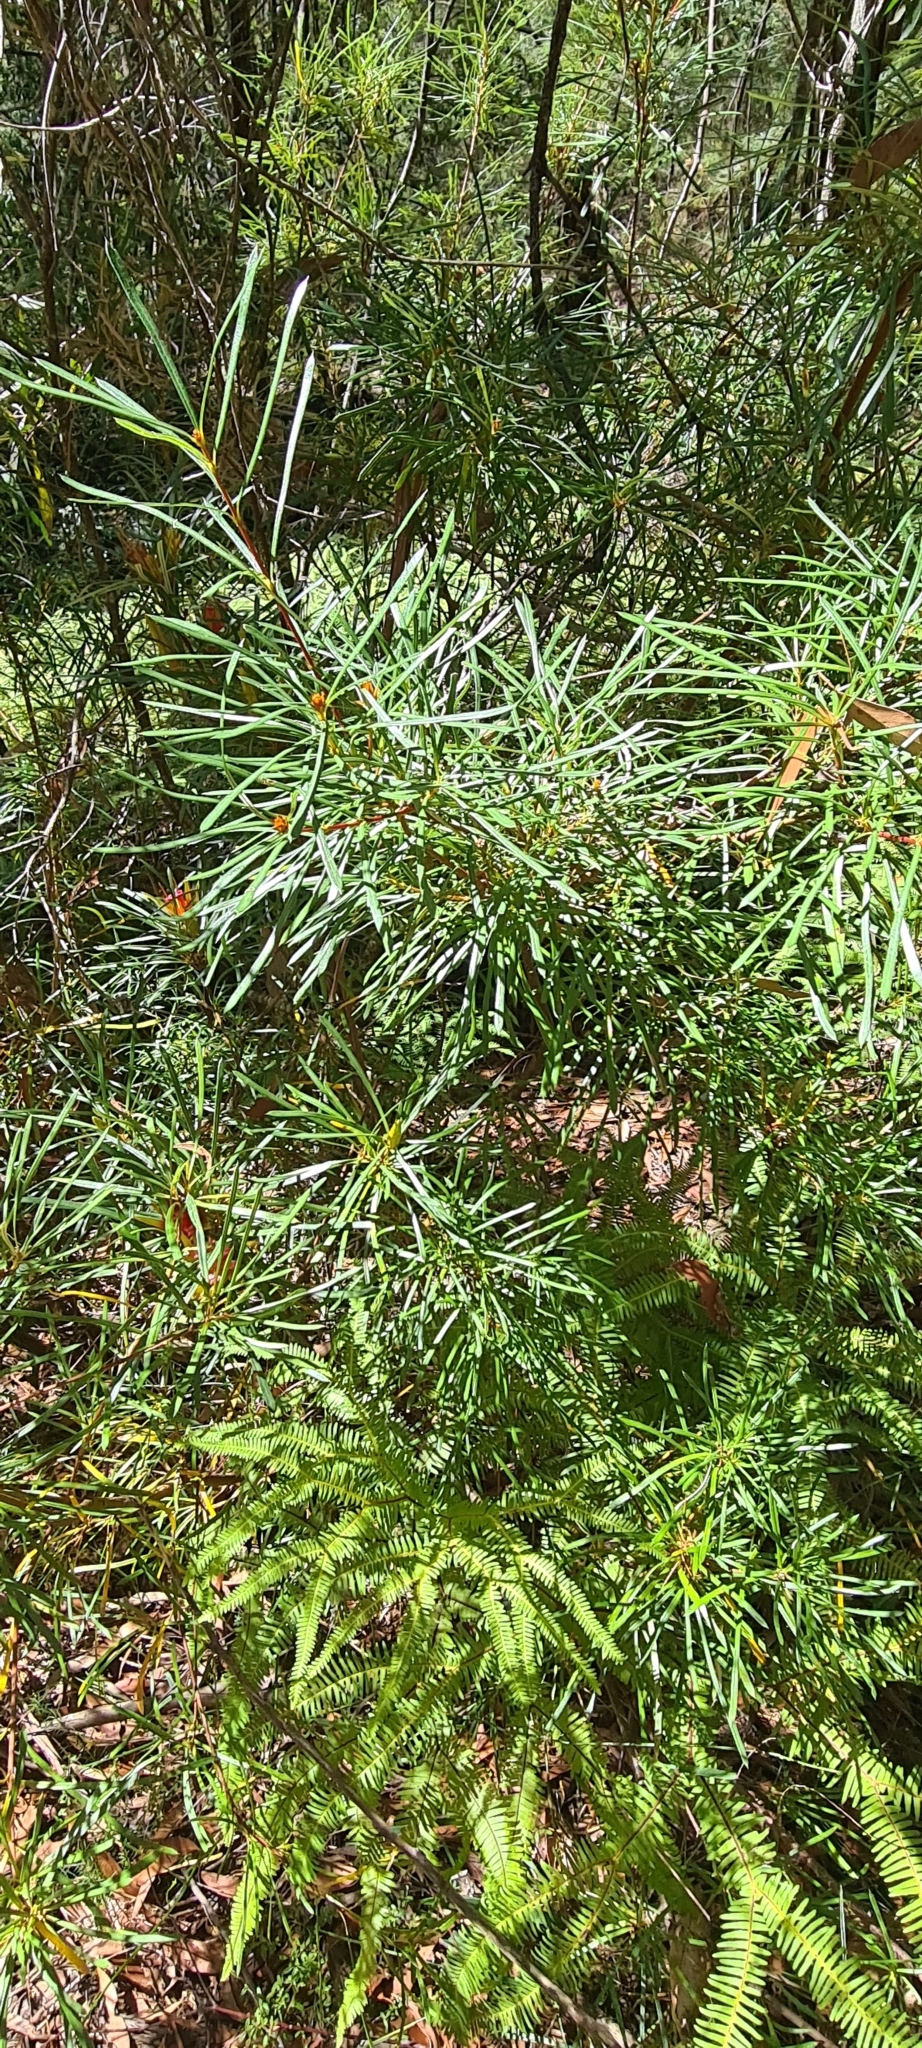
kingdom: Plantae
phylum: Tracheophyta
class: Magnoliopsida
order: Proteales
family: Proteaceae
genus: Lambertia
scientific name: Lambertia formosa
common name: Mountain-devil
